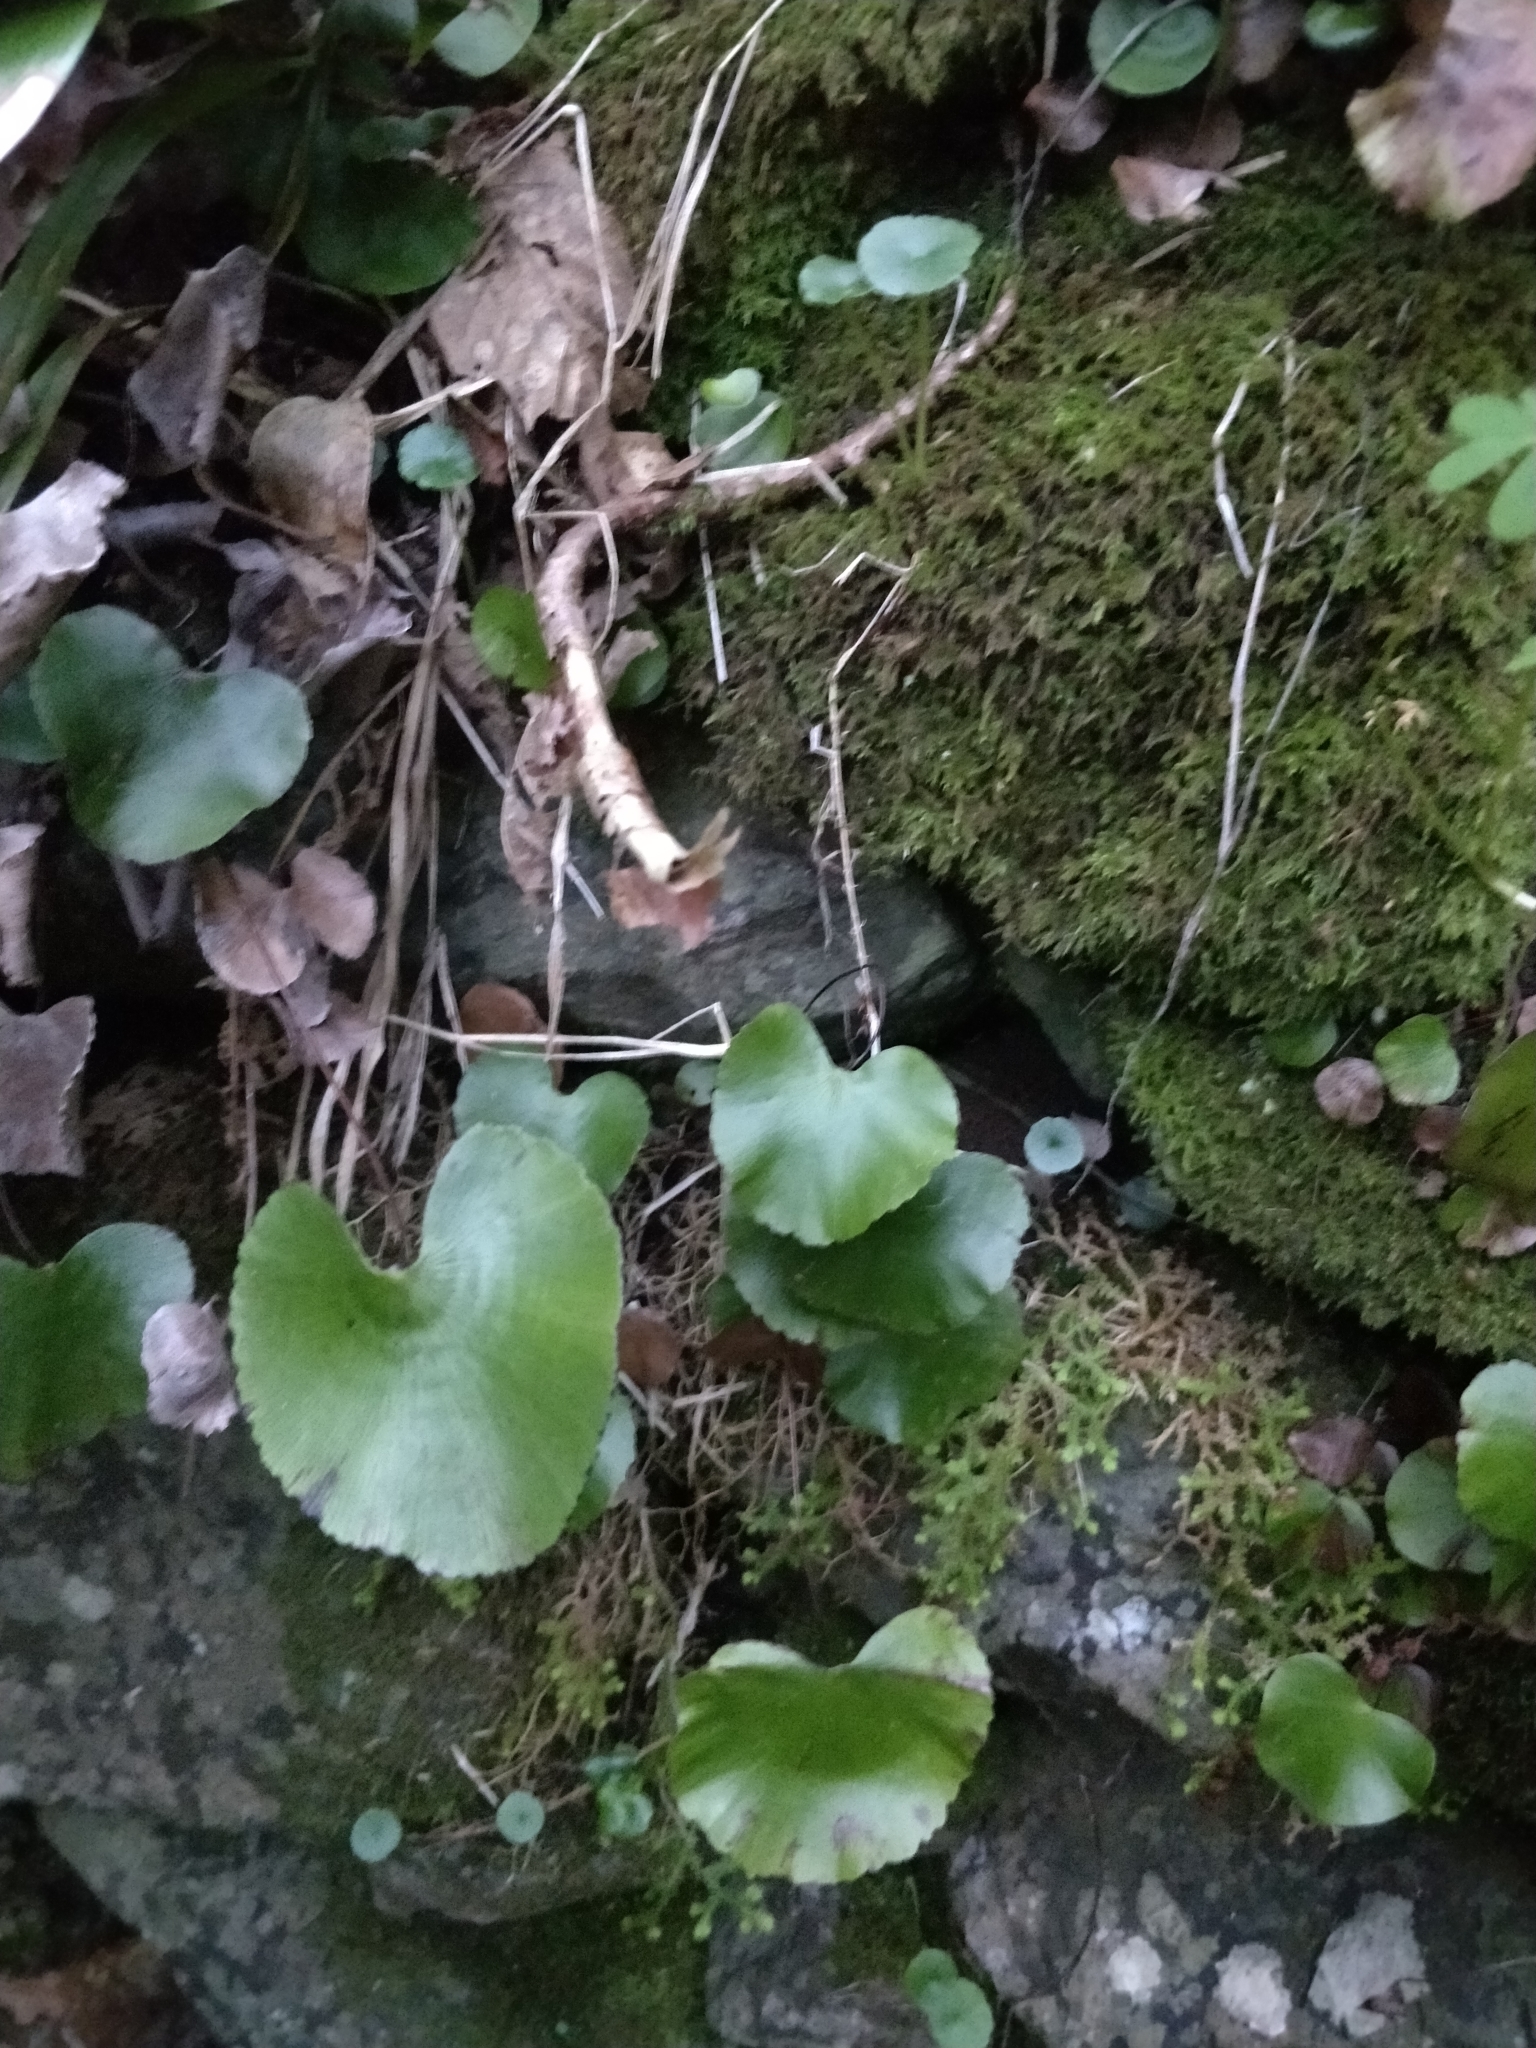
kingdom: Plantae
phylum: Tracheophyta
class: Polypodiopsida
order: Polypodiales
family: Pteridaceae
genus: Adiantum
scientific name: Adiantum reniforme
